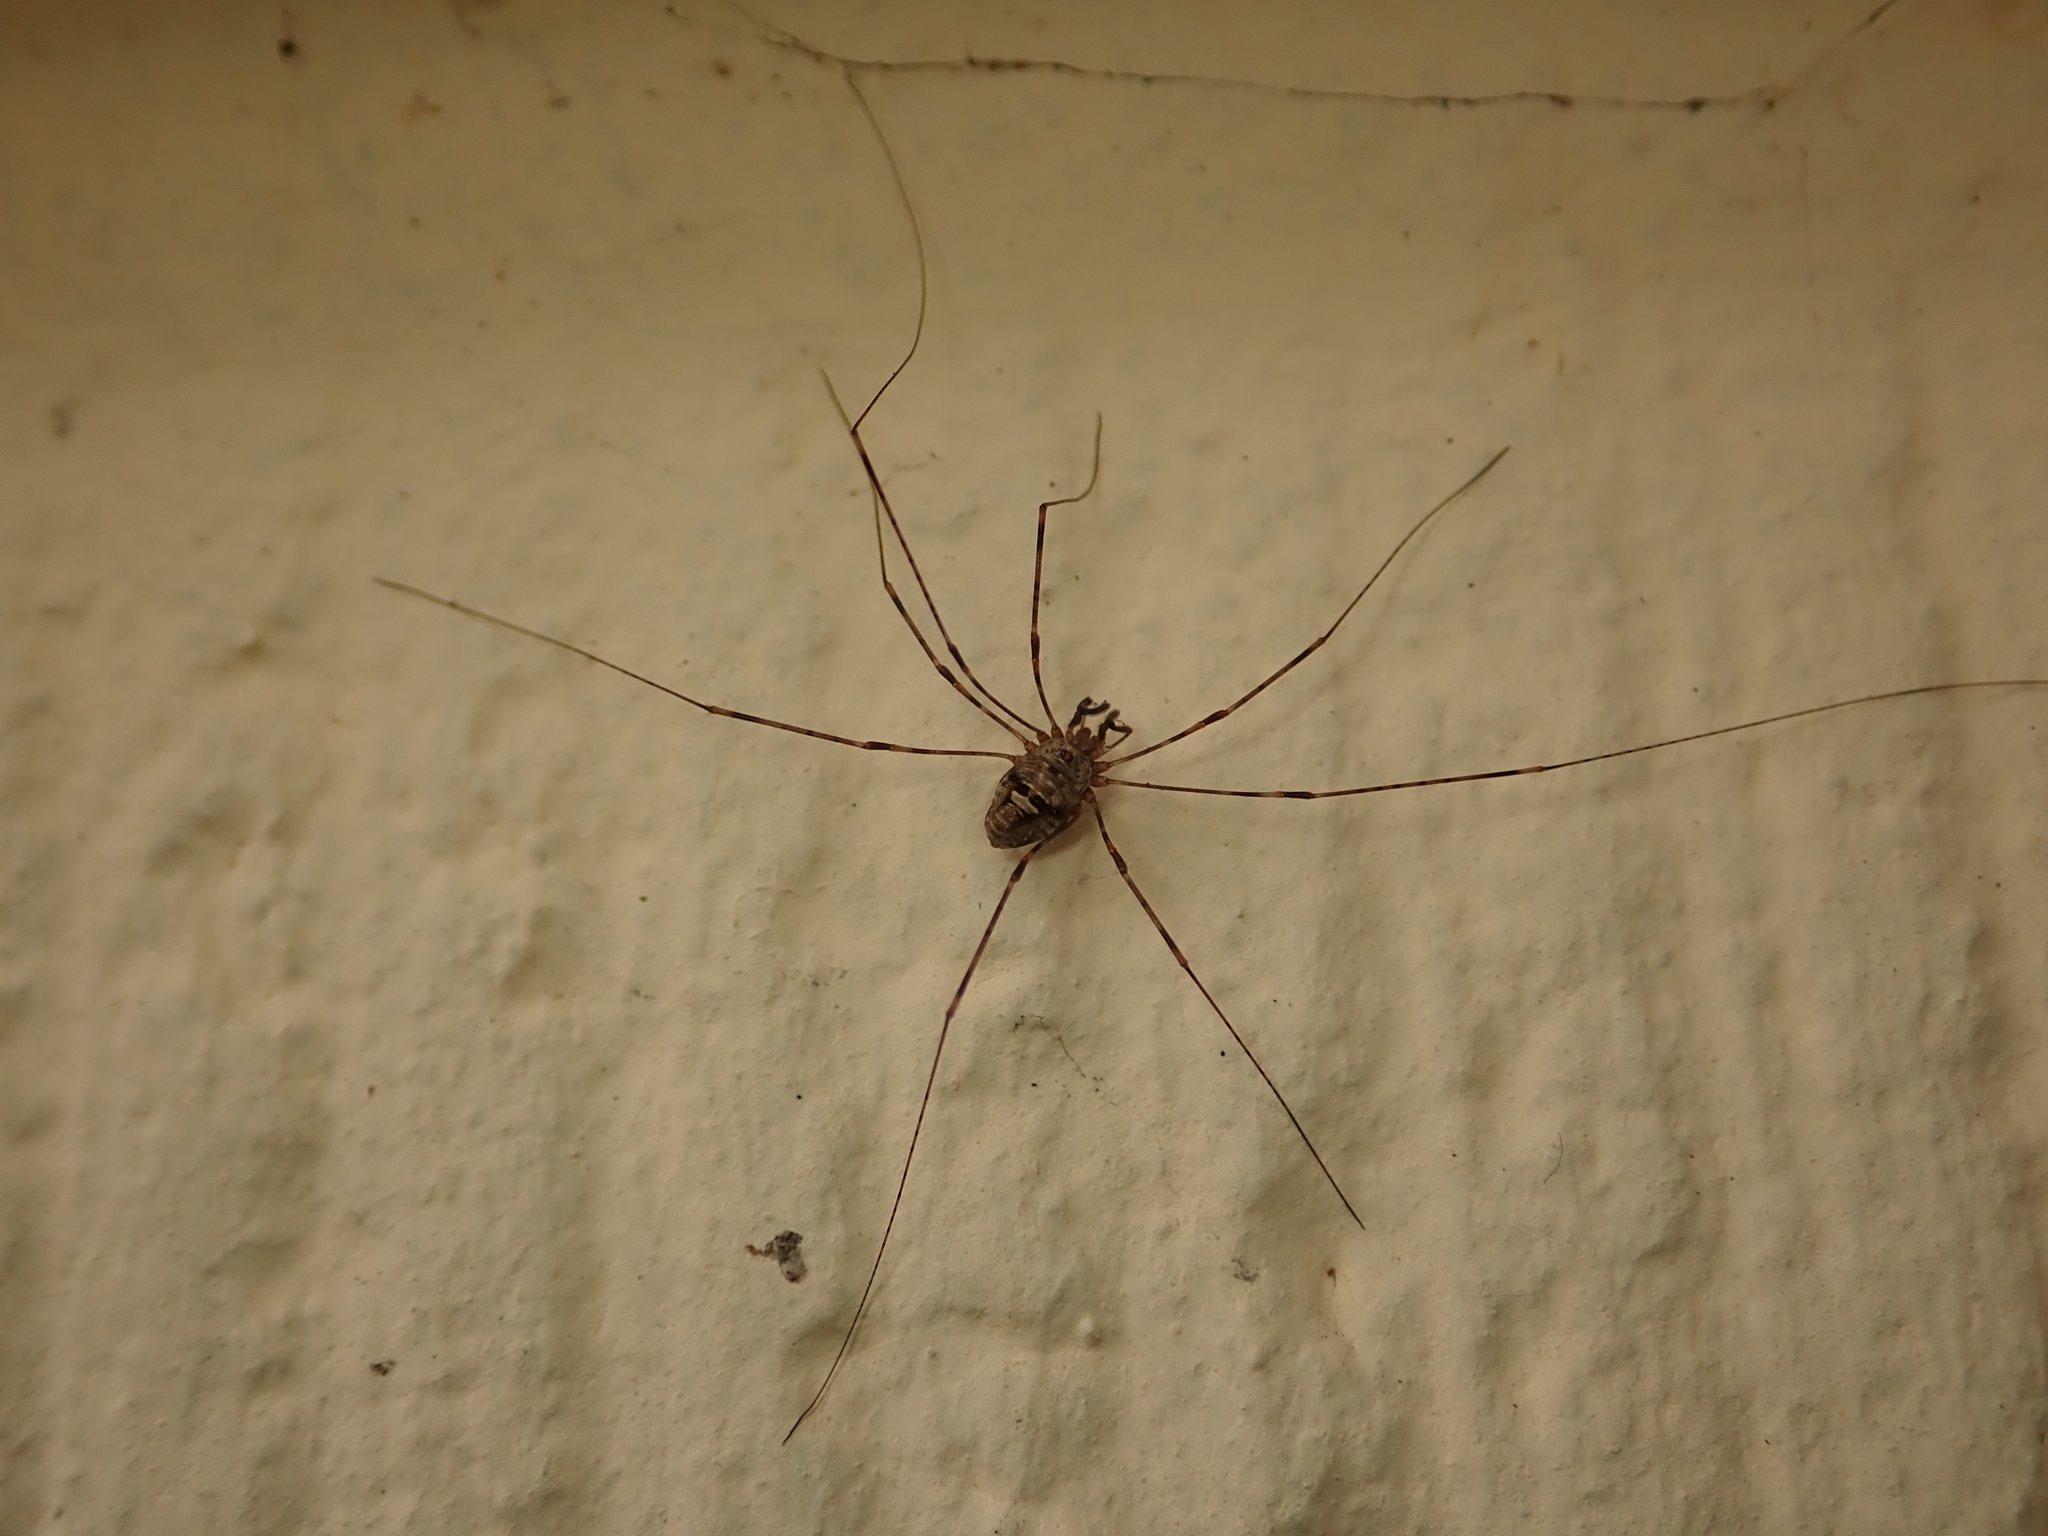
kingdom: Animalia
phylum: Arthropoda
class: Arachnida
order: Opiliones
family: Phalangiidae
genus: Dicranopalpus
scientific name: Dicranopalpus ramosus
